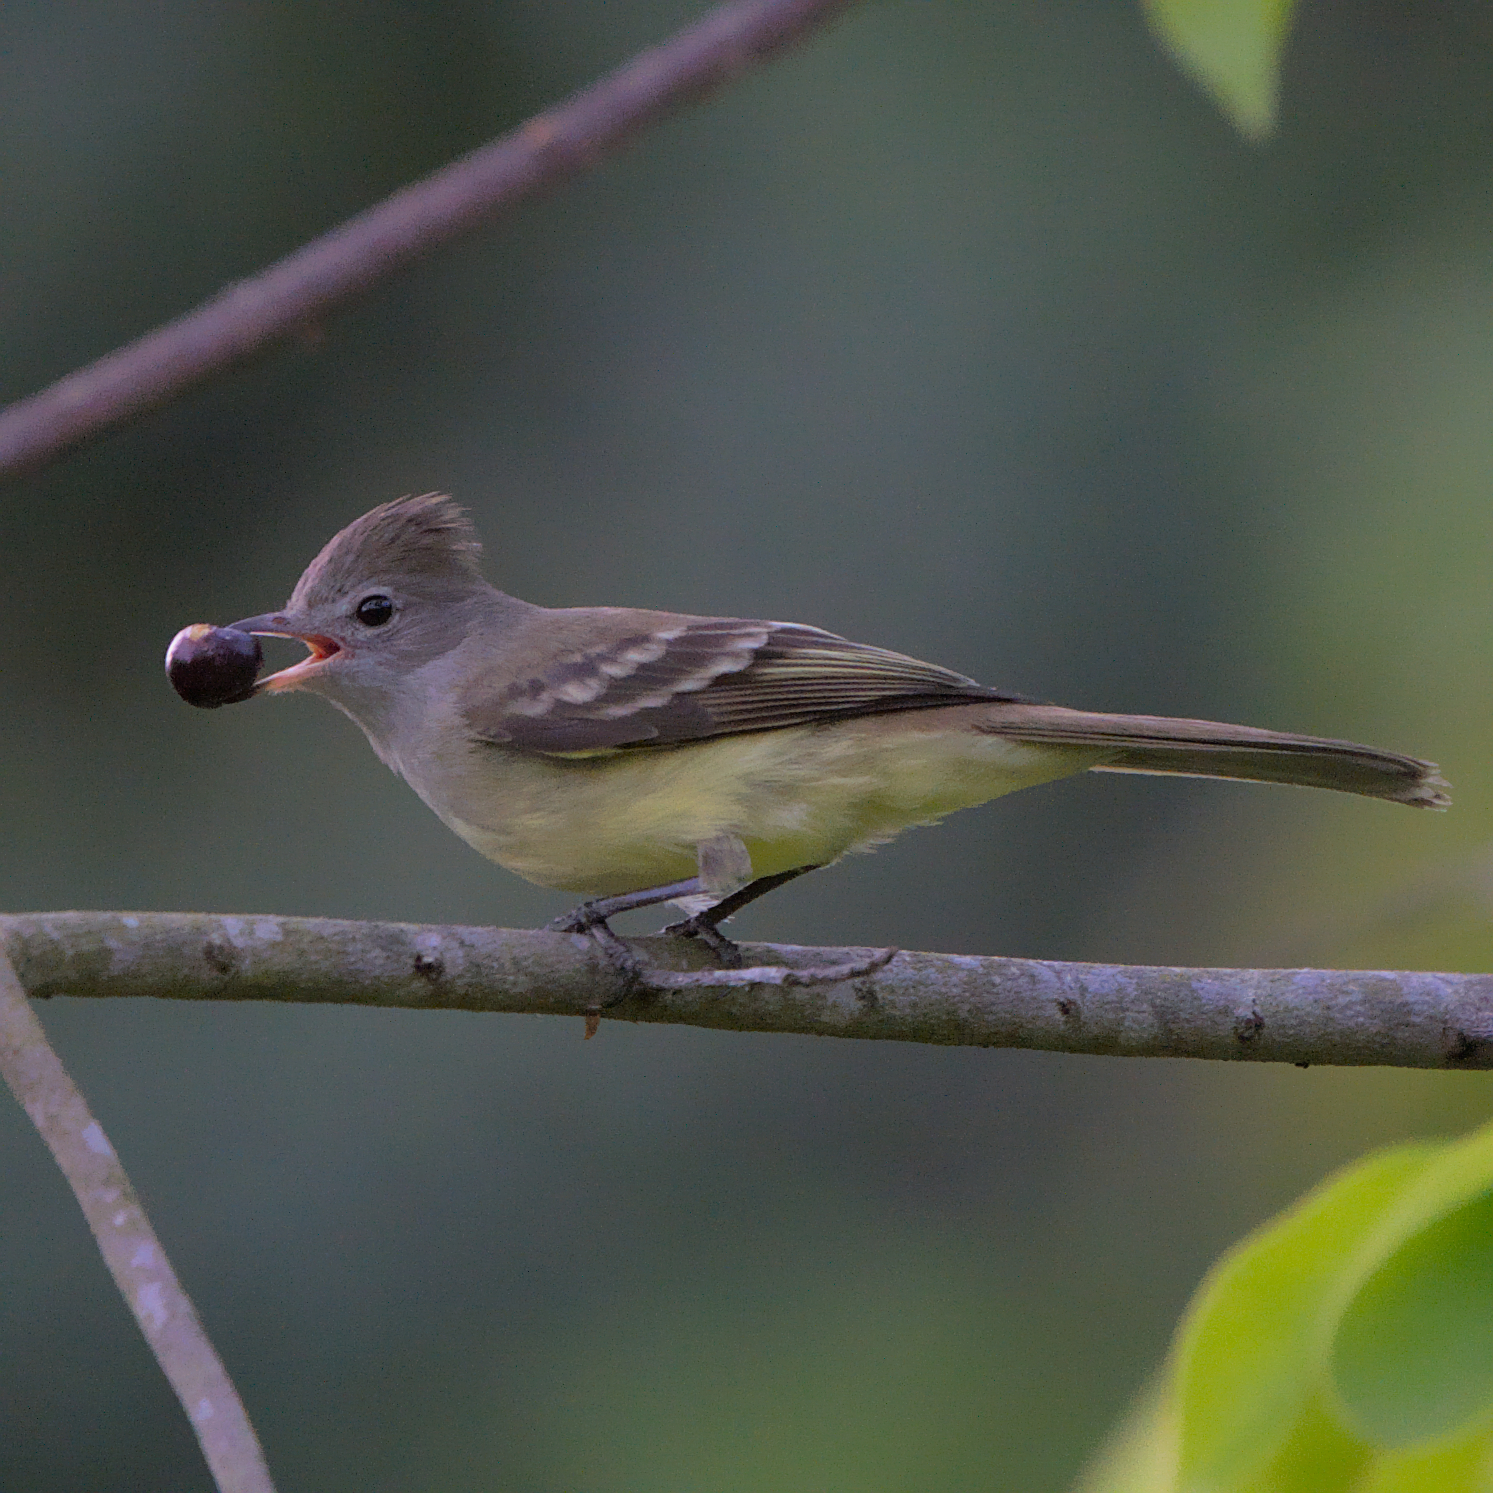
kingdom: Animalia
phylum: Chordata
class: Aves
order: Passeriformes
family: Tyrannidae
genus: Elaenia
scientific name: Elaenia flavogaster
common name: Yellow-bellied elaenia
